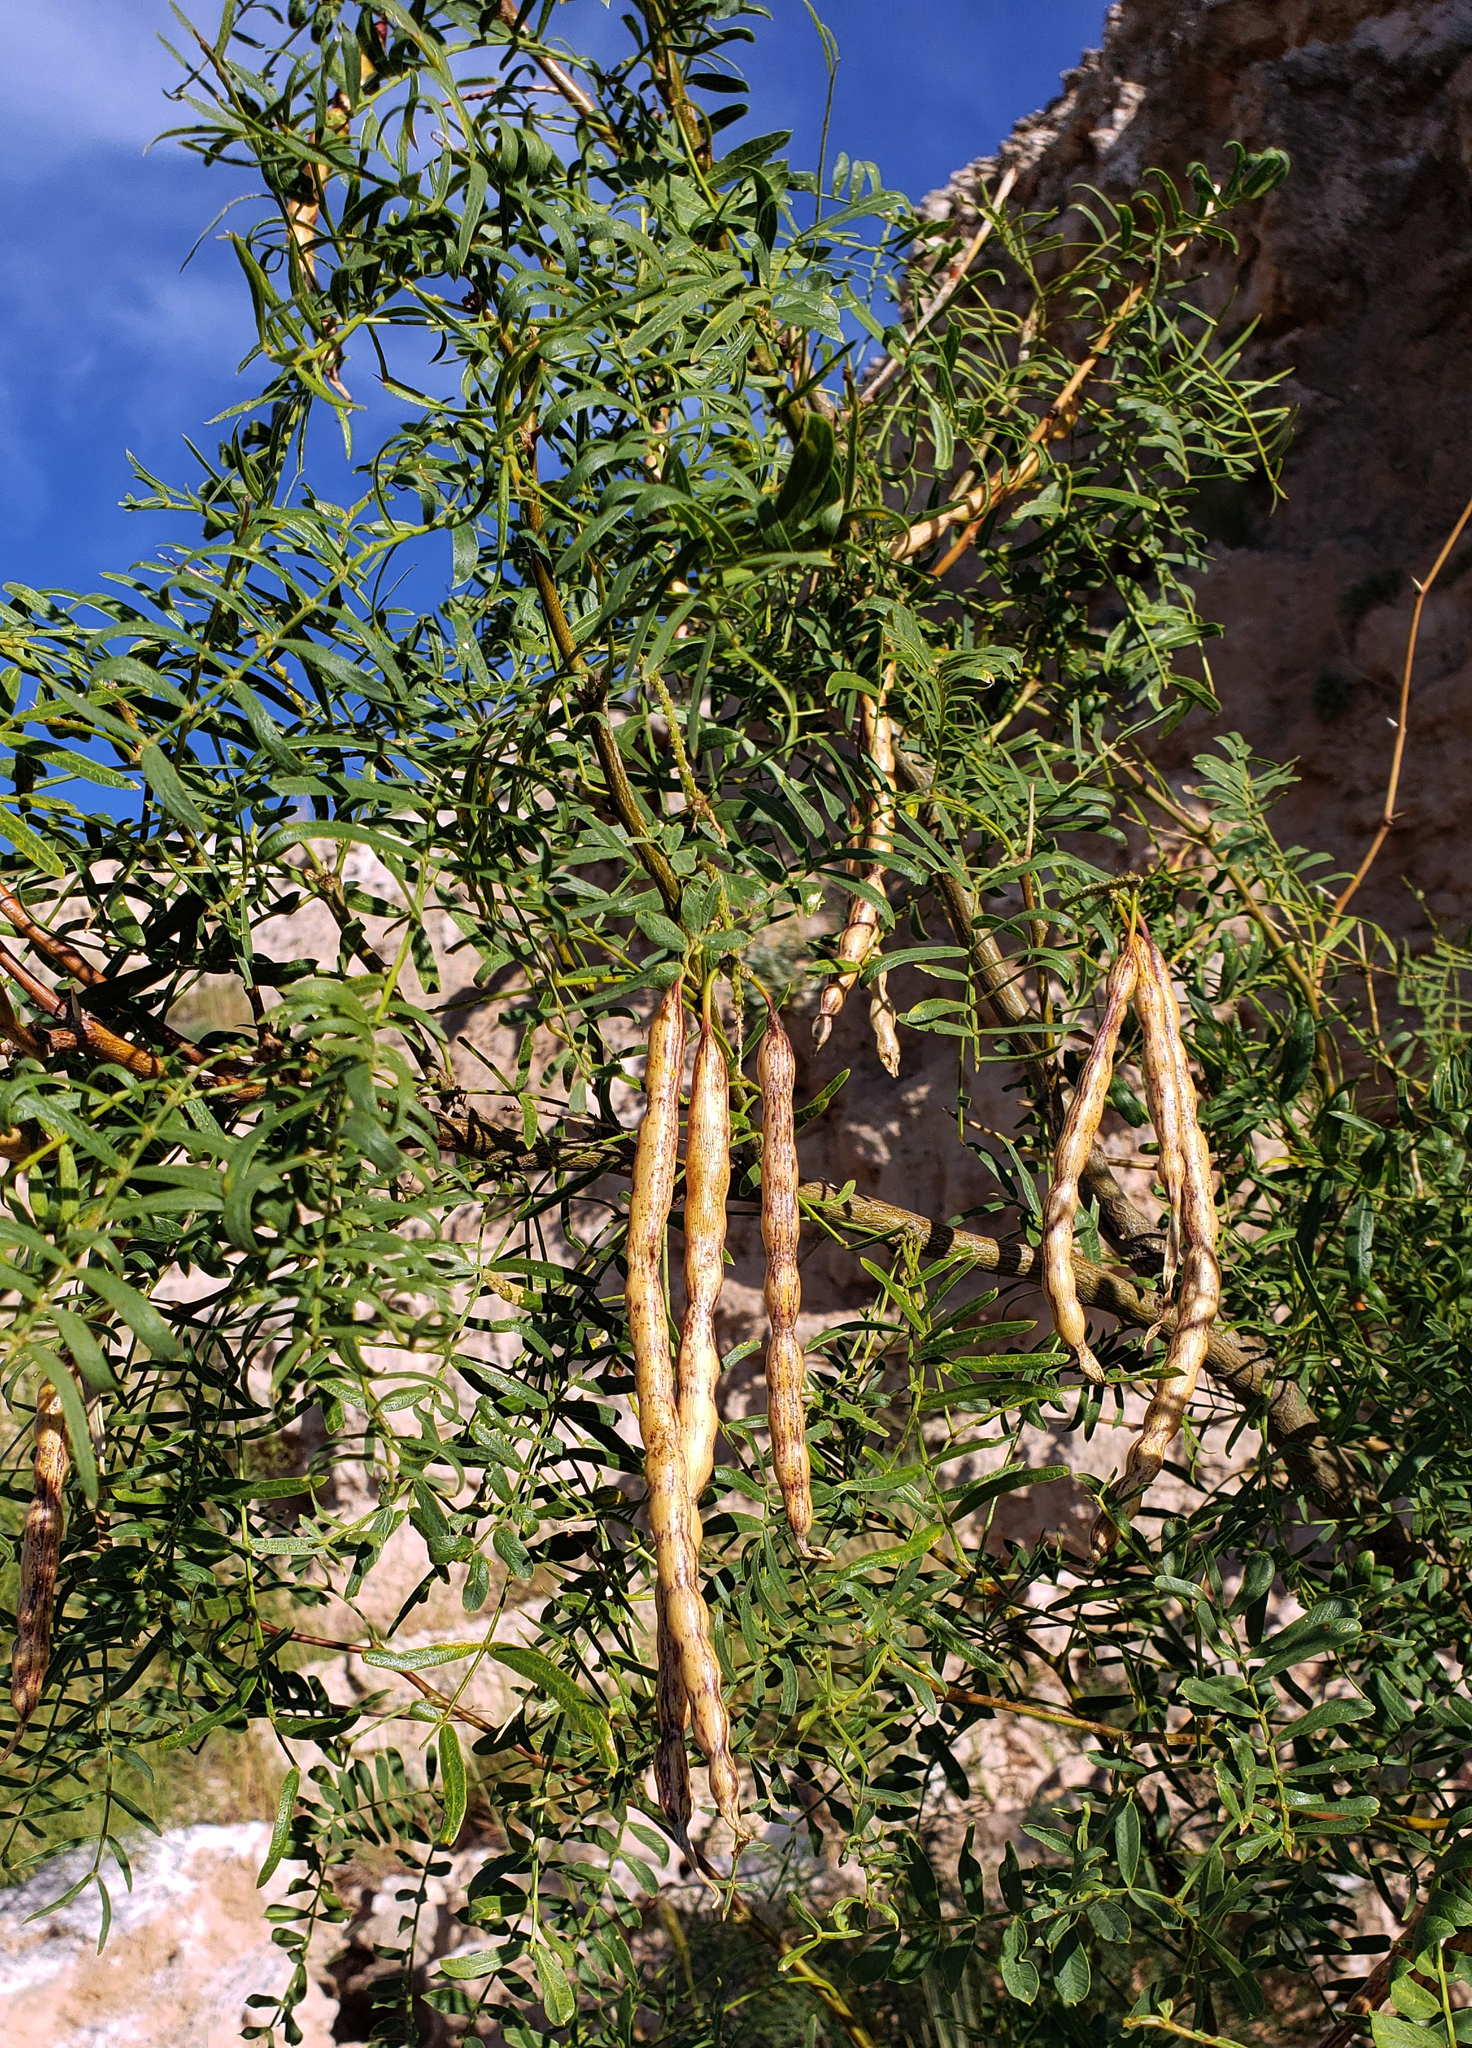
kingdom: Plantae
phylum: Tracheophyta
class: Magnoliopsida
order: Fabales
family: Fabaceae
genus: Prosopis
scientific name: Prosopis glandulosa
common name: Honey mesquite
